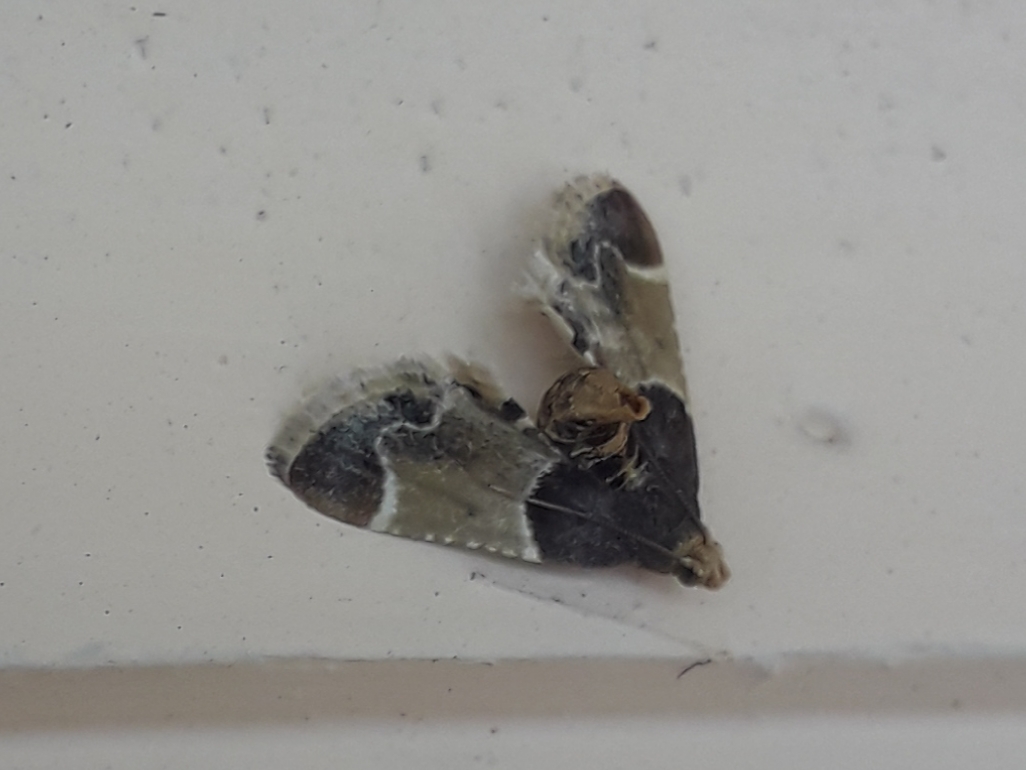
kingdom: Animalia
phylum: Arthropoda
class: Insecta
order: Lepidoptera
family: Pyralidae
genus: Pyralis
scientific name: Pyralis farinalis
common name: Meal moth
